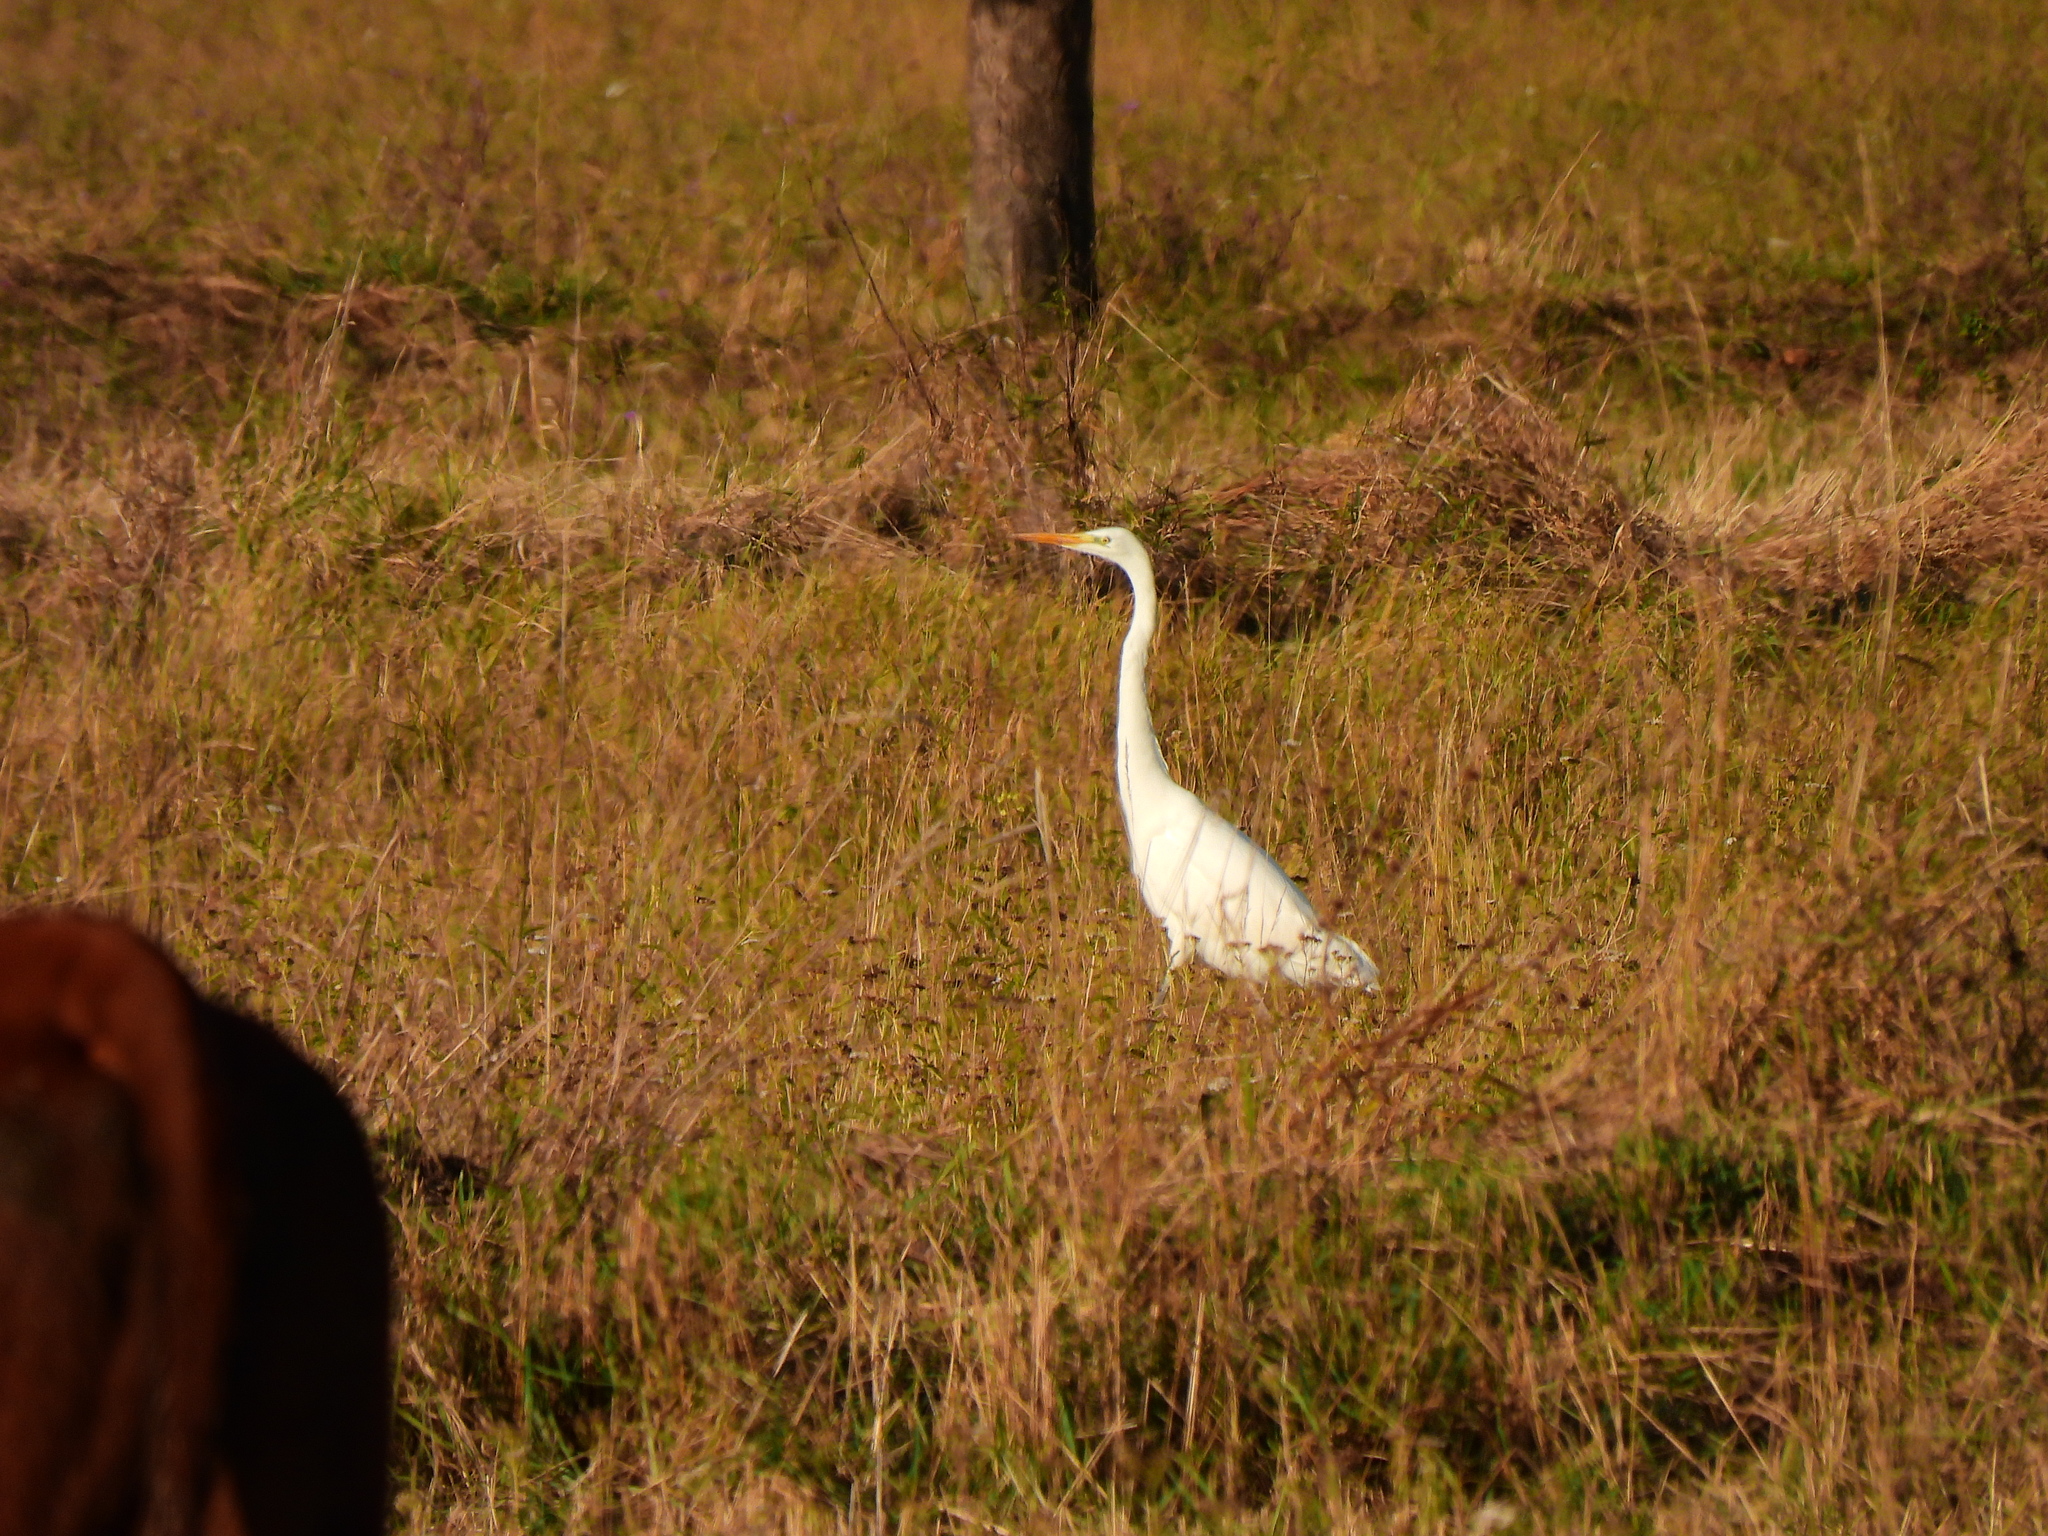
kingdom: Animalia
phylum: Chordata
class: Aves
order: Pelecaniformes
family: Ardeidae
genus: Ardea
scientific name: Ardea alba
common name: Great egret
